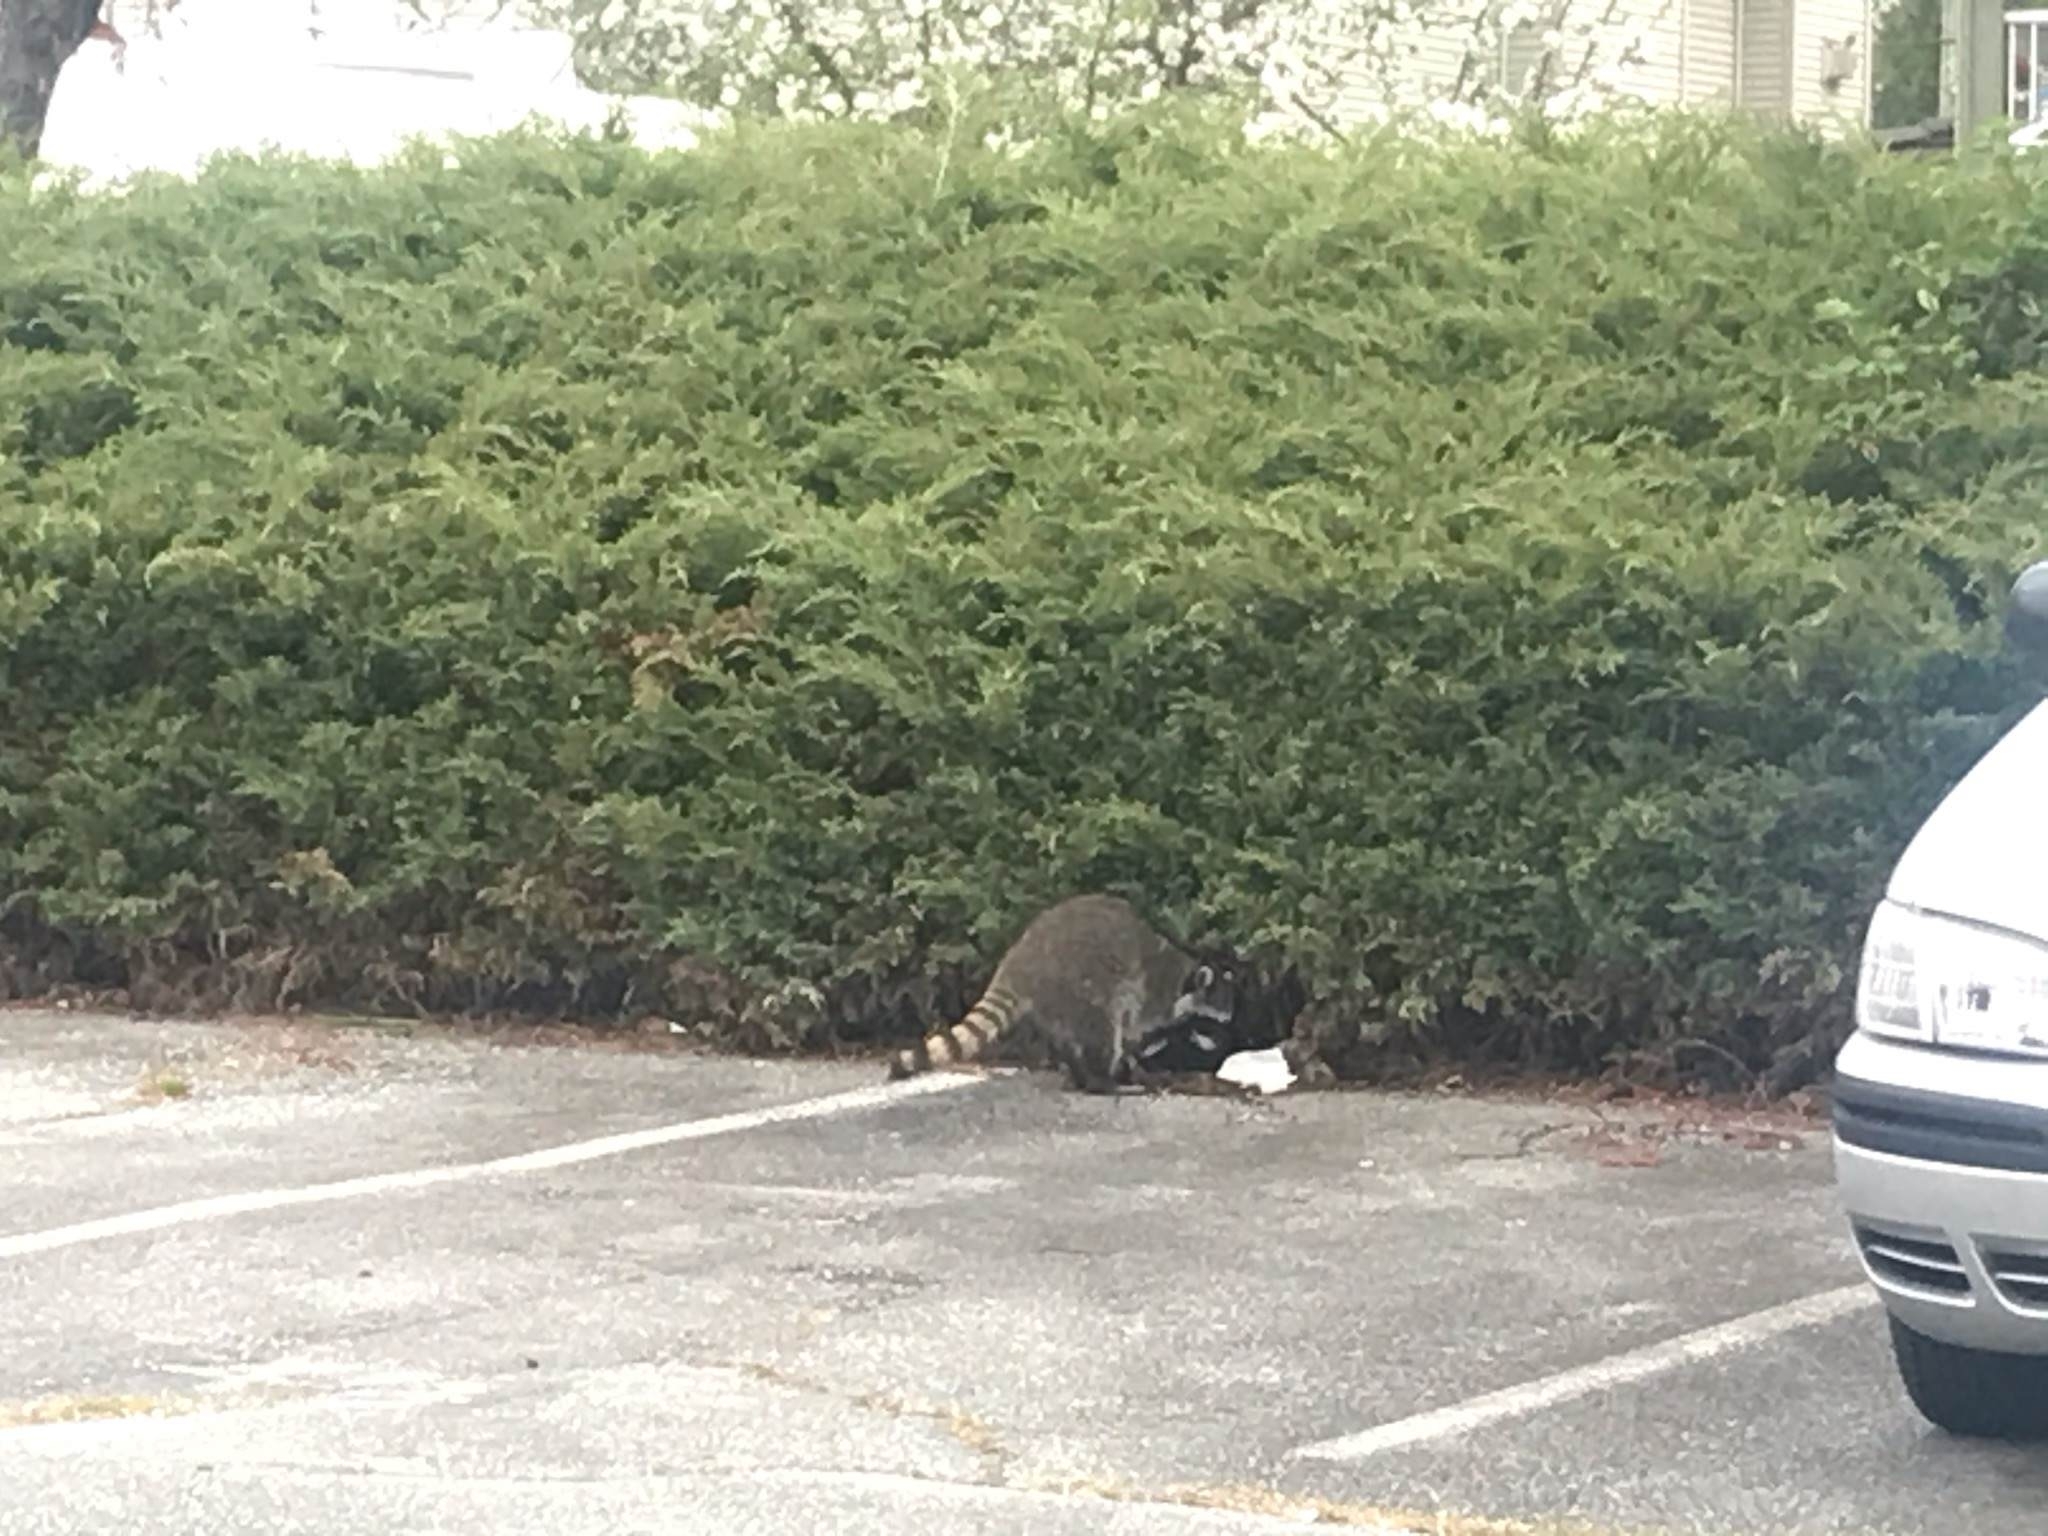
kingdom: Animalia
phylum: Chordata
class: Mammalia
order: Carnivora
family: Procyonidae
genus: Procyon
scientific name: Procyon lotor
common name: Raccoon
